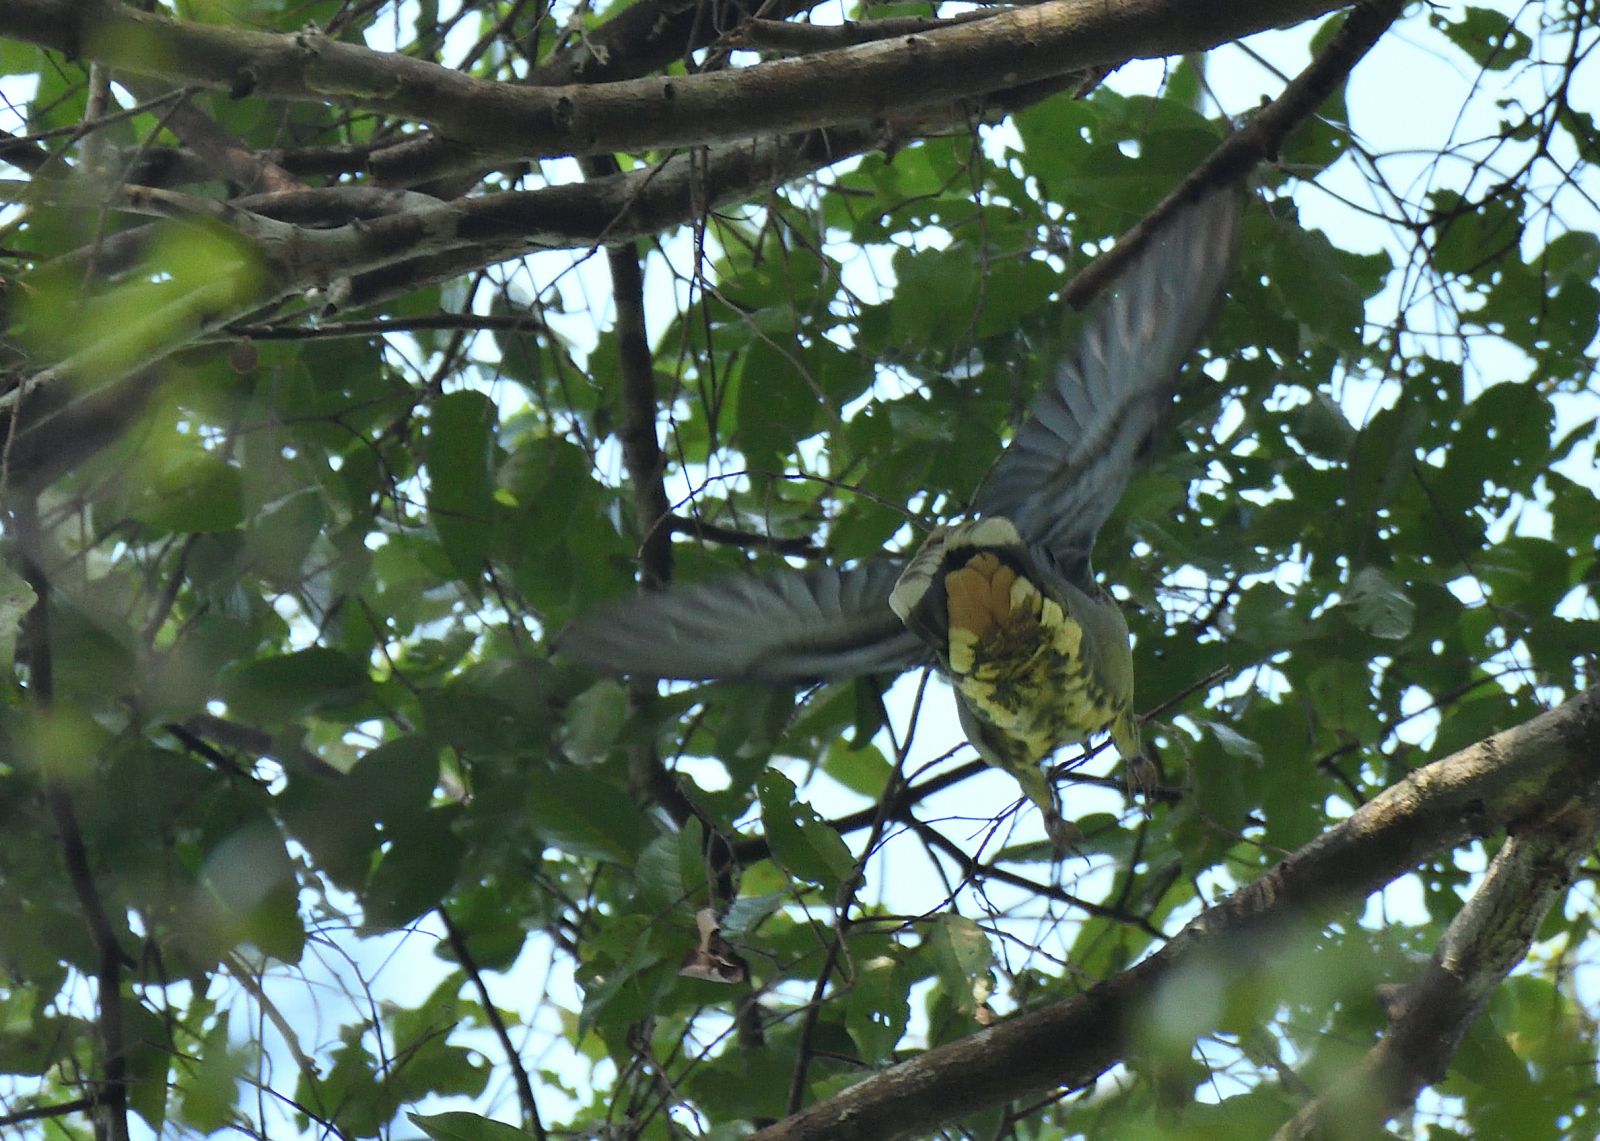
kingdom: Animalia
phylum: Chordata
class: Aves
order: Columbiformes
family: Columbidae
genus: Treron
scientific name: Treron affinis
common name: Grey-fronted green pigeon
